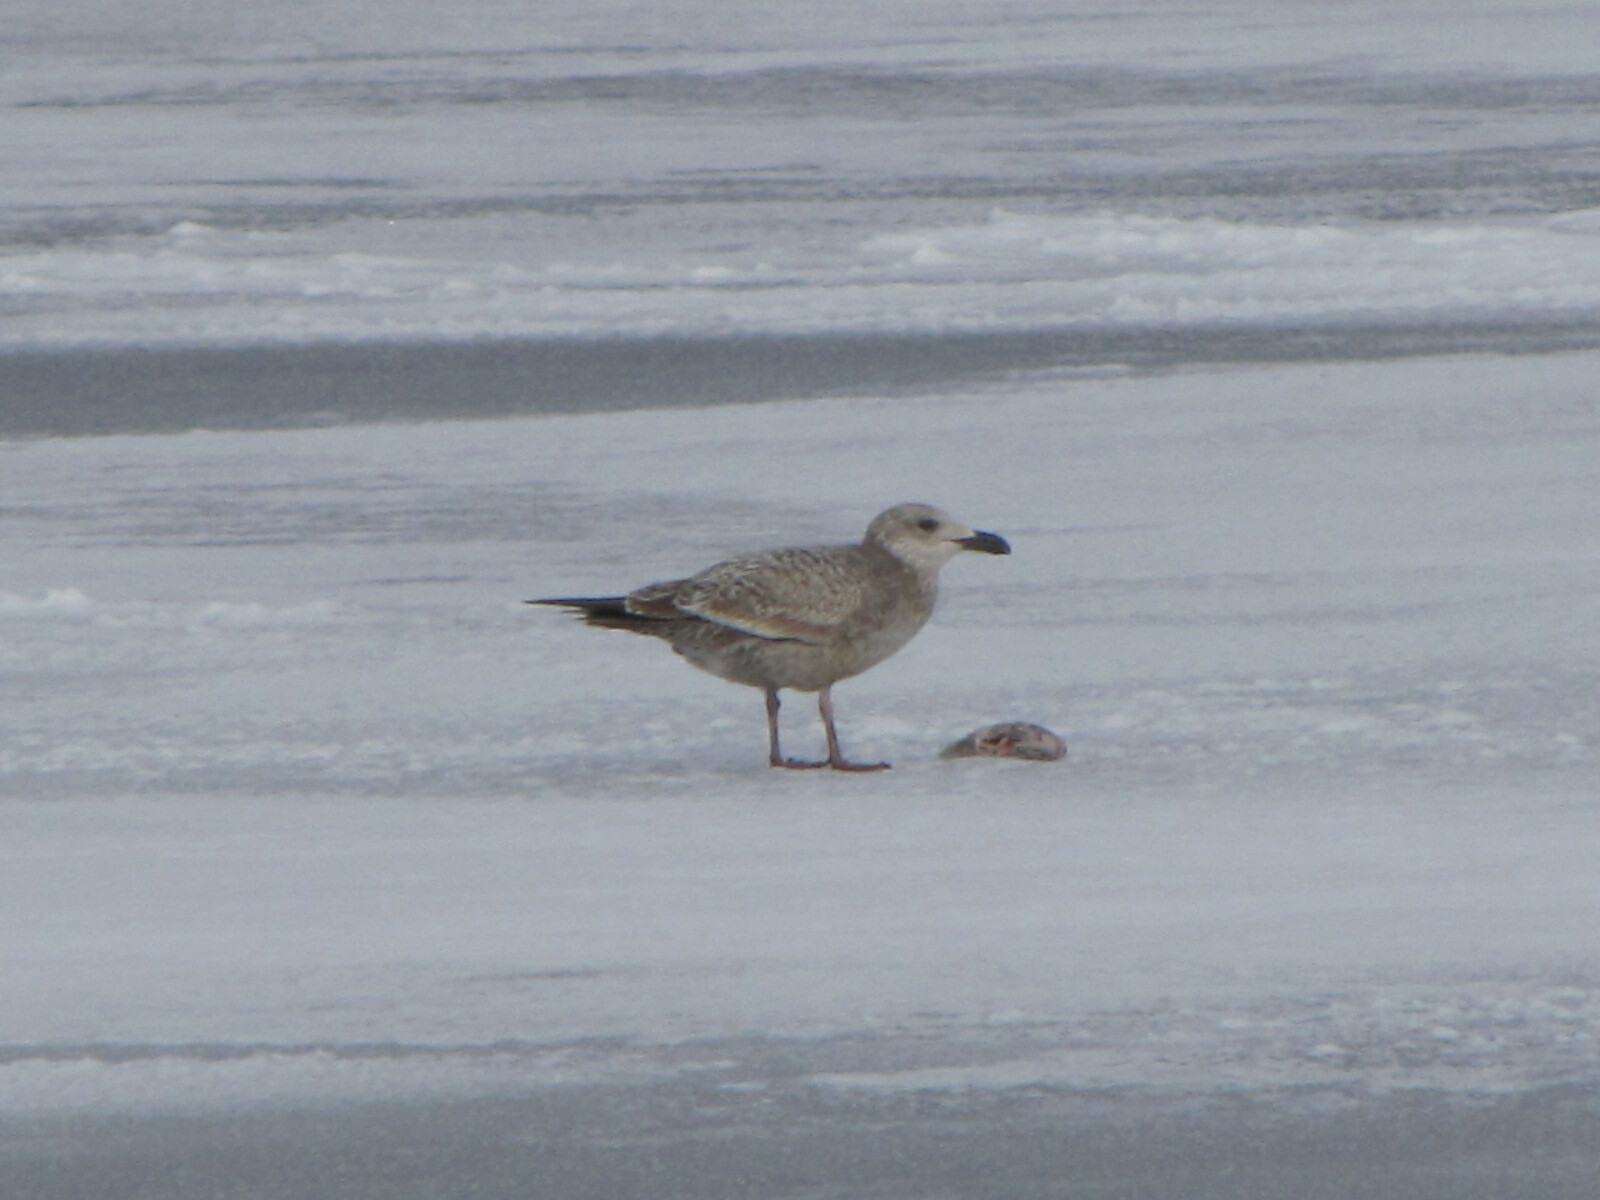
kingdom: Animalia
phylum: Chordata
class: Aves
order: Charadriiformes
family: Laridae
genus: Larus
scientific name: Larus argentatus
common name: Herring gull
